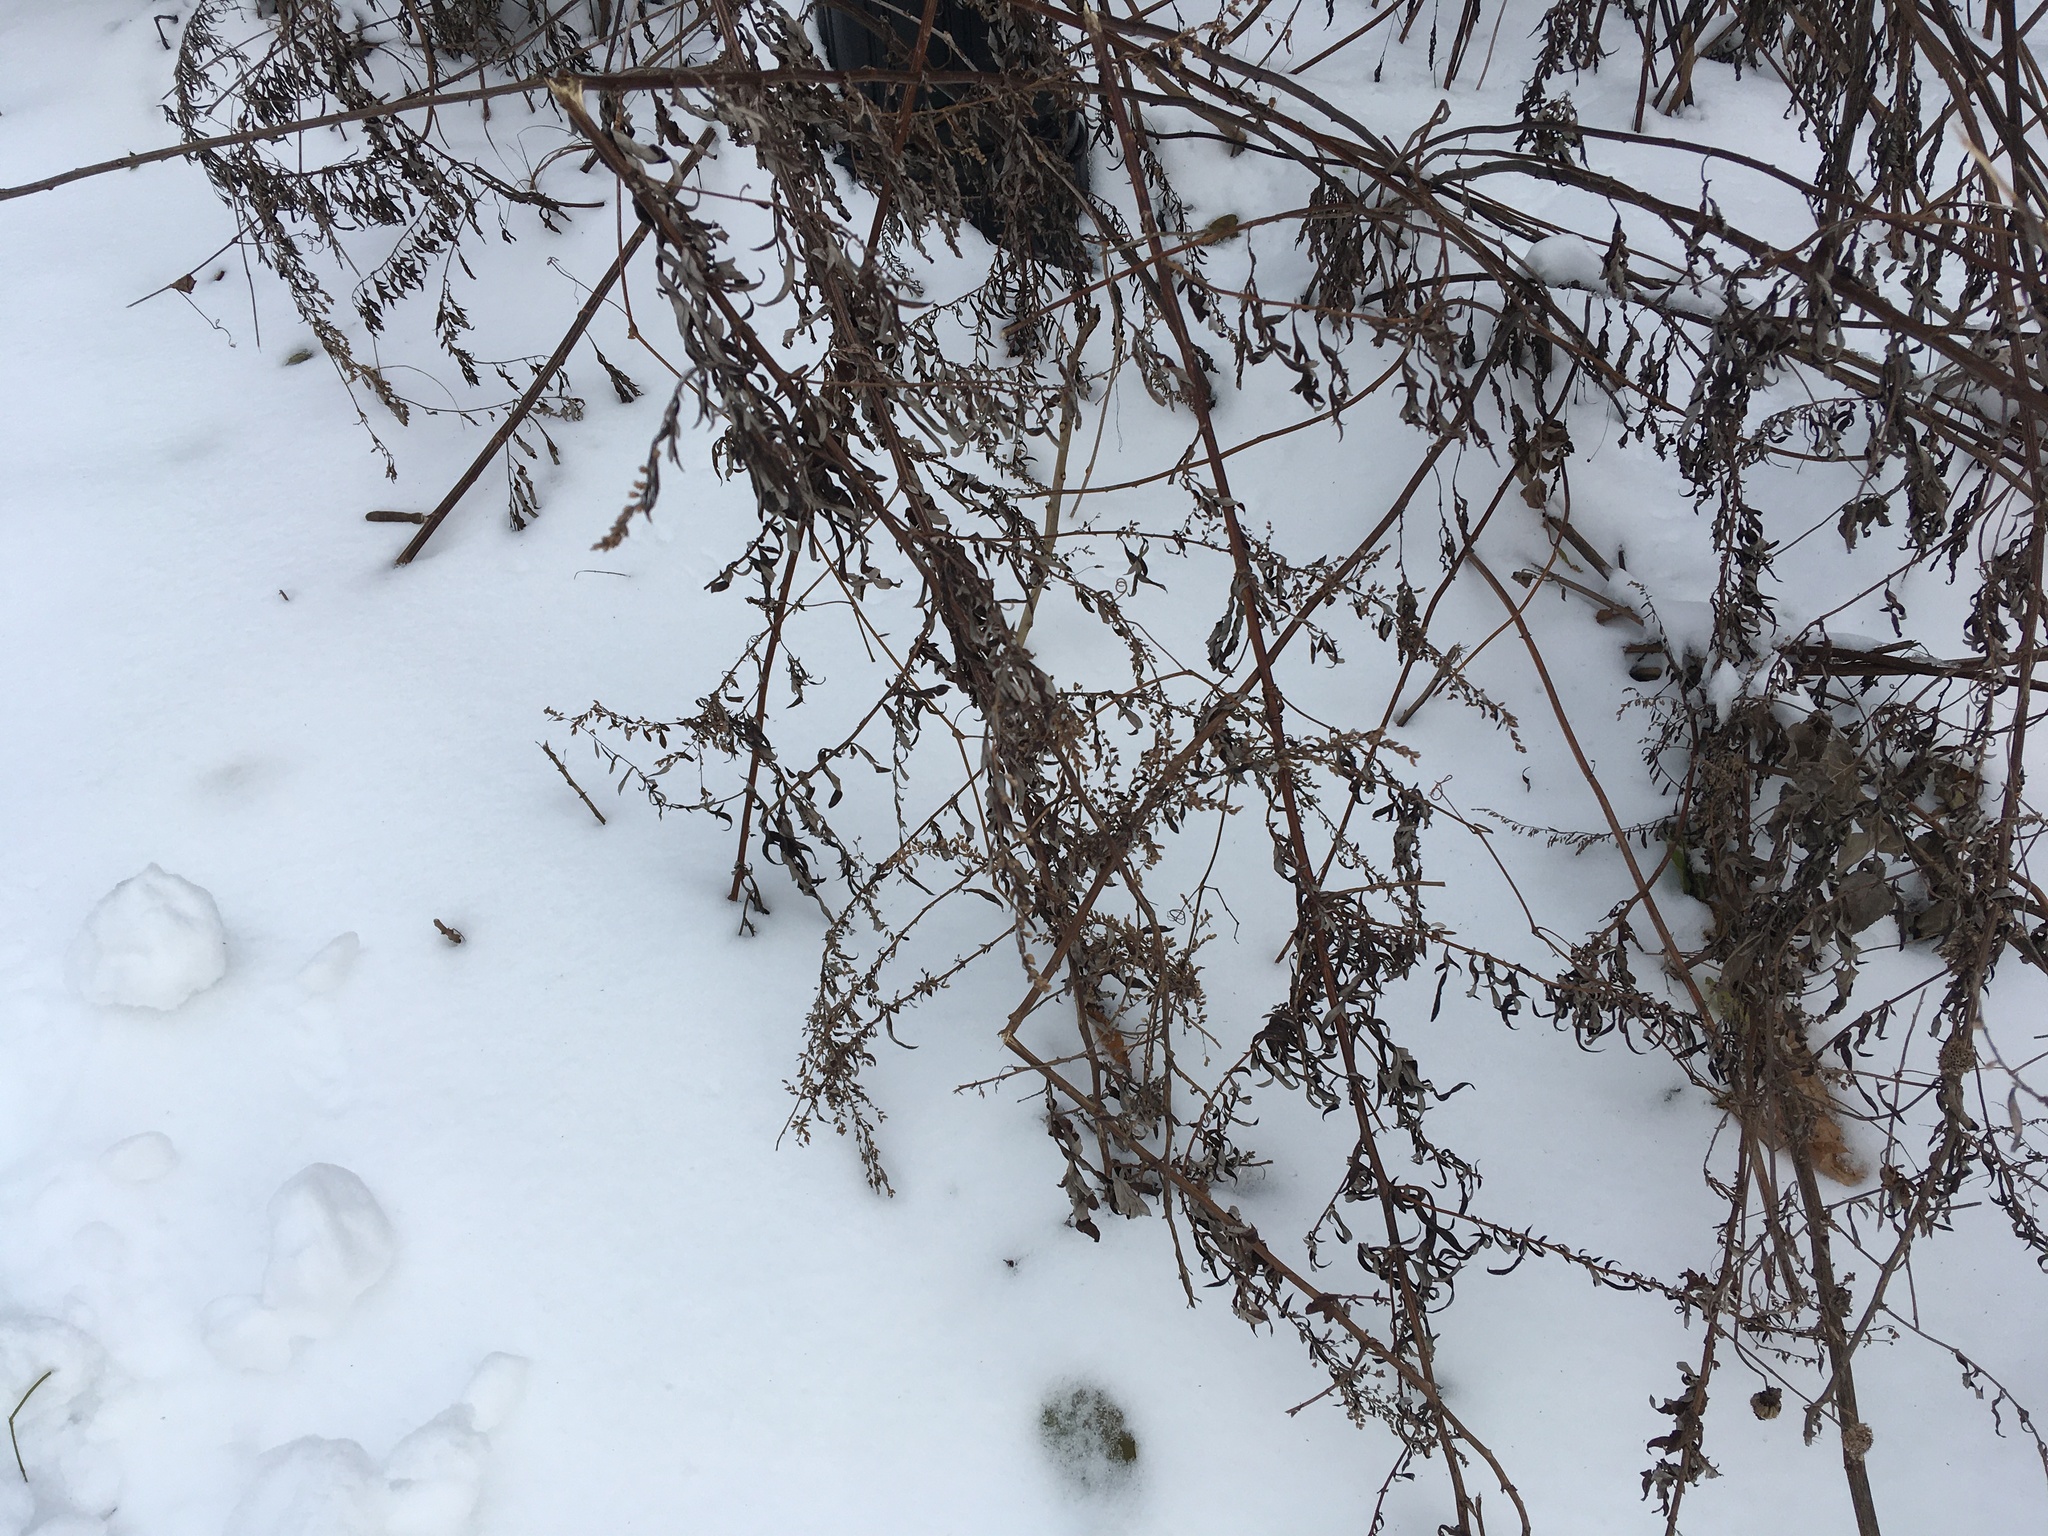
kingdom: Plantae
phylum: Tracheophyta
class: Magnoliopsida
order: Asterales
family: Asteraceae
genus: Artemisia
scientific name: Artemisia vulgaris
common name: Mugwort
